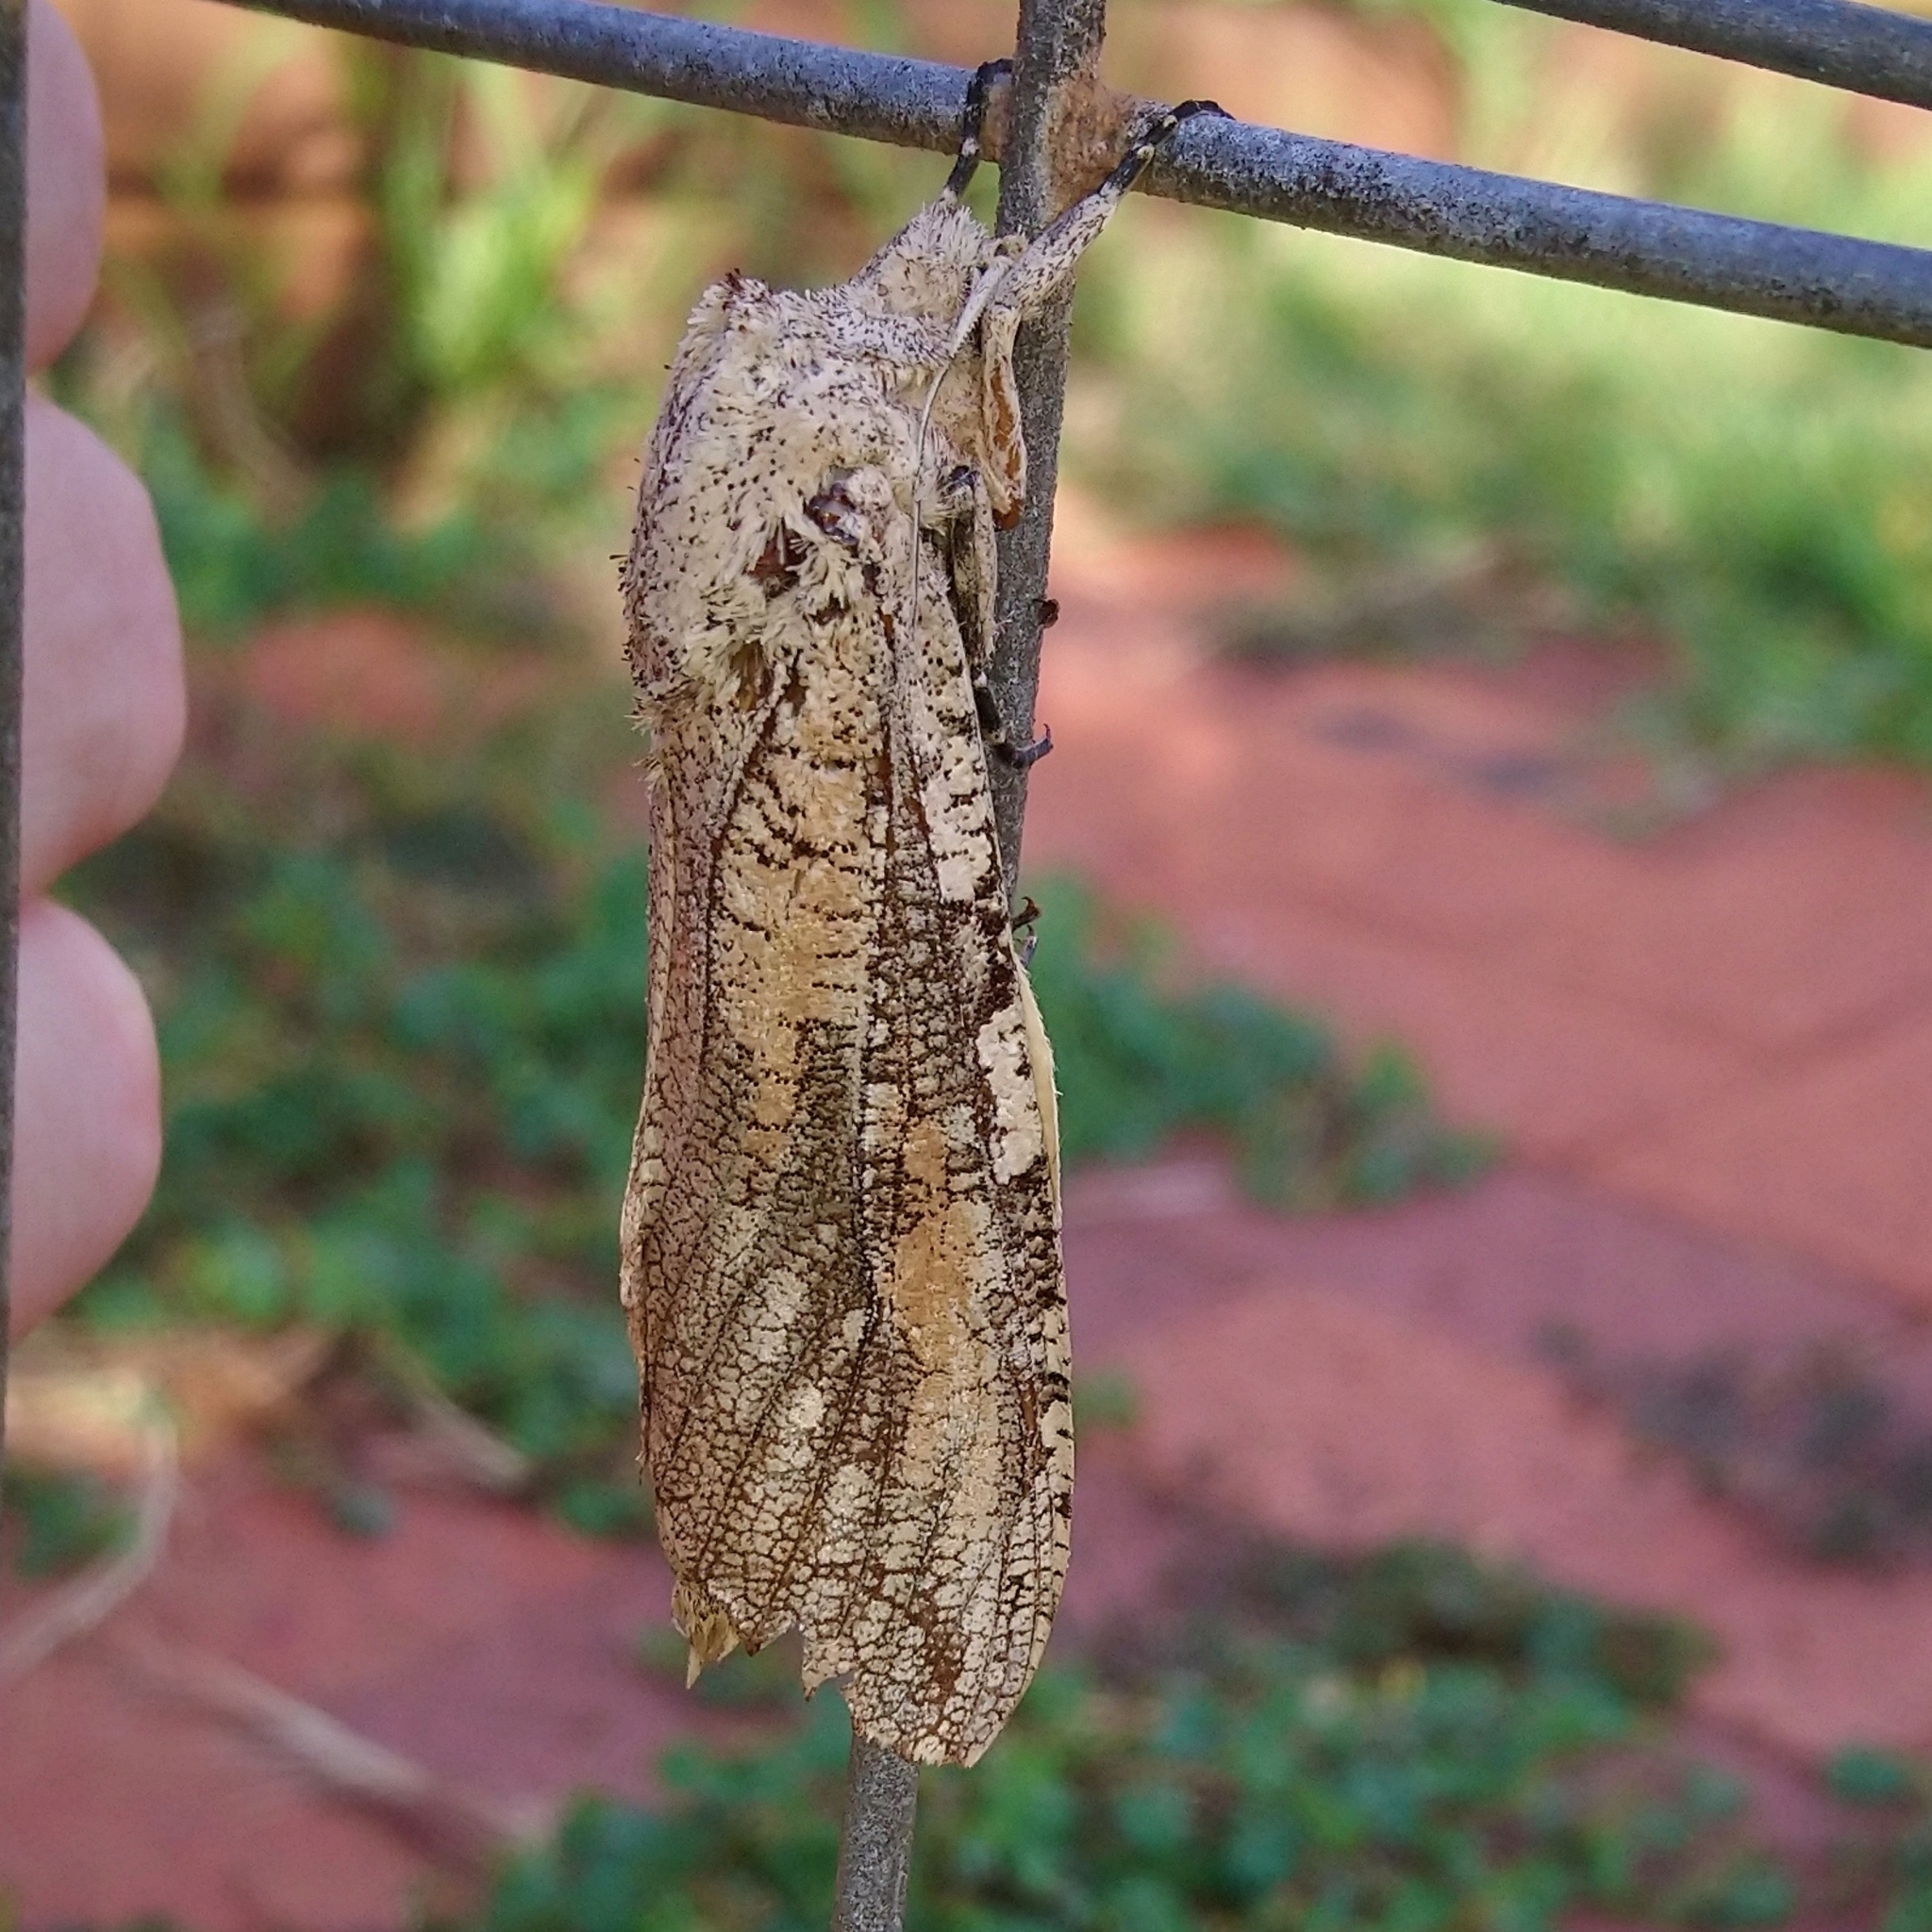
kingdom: Animalia
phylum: Arthropoda
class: Insecta
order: Lepidoptera
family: Cossidae
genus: Strigocossus
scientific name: Strigocossus capensis
